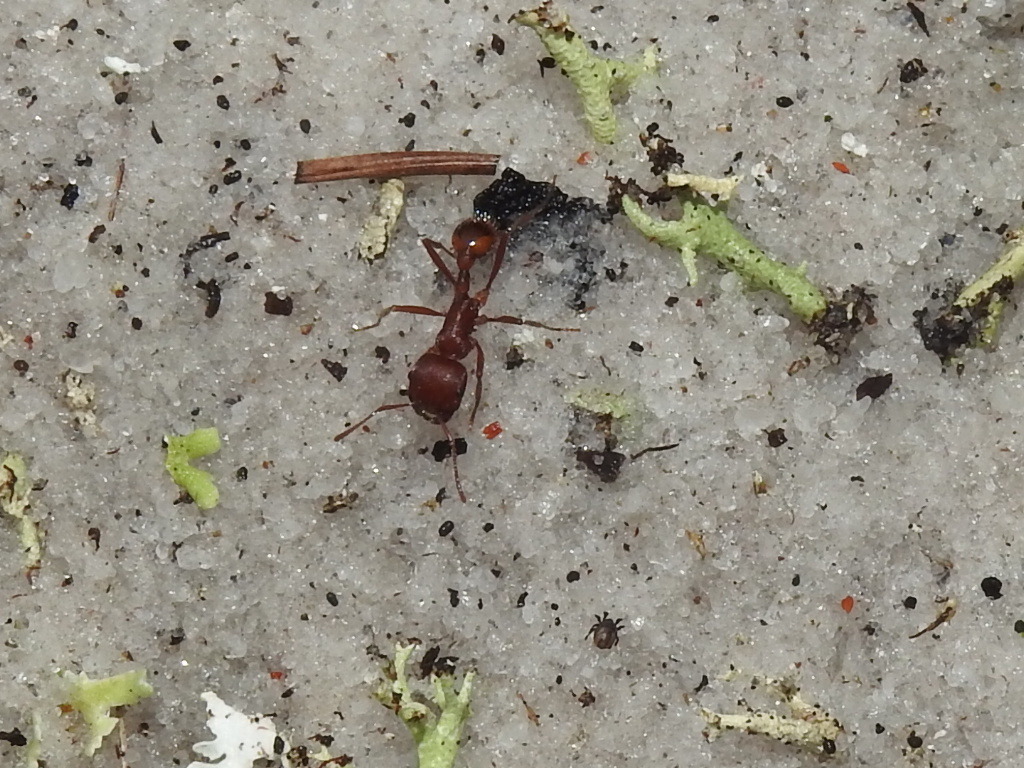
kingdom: Animalia
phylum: Arthropoda
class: Insecta
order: Hymenoptera
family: Formicidae
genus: Pogonomyrmex
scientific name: Pogonomyrmex badius
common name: Florida harvester ant
